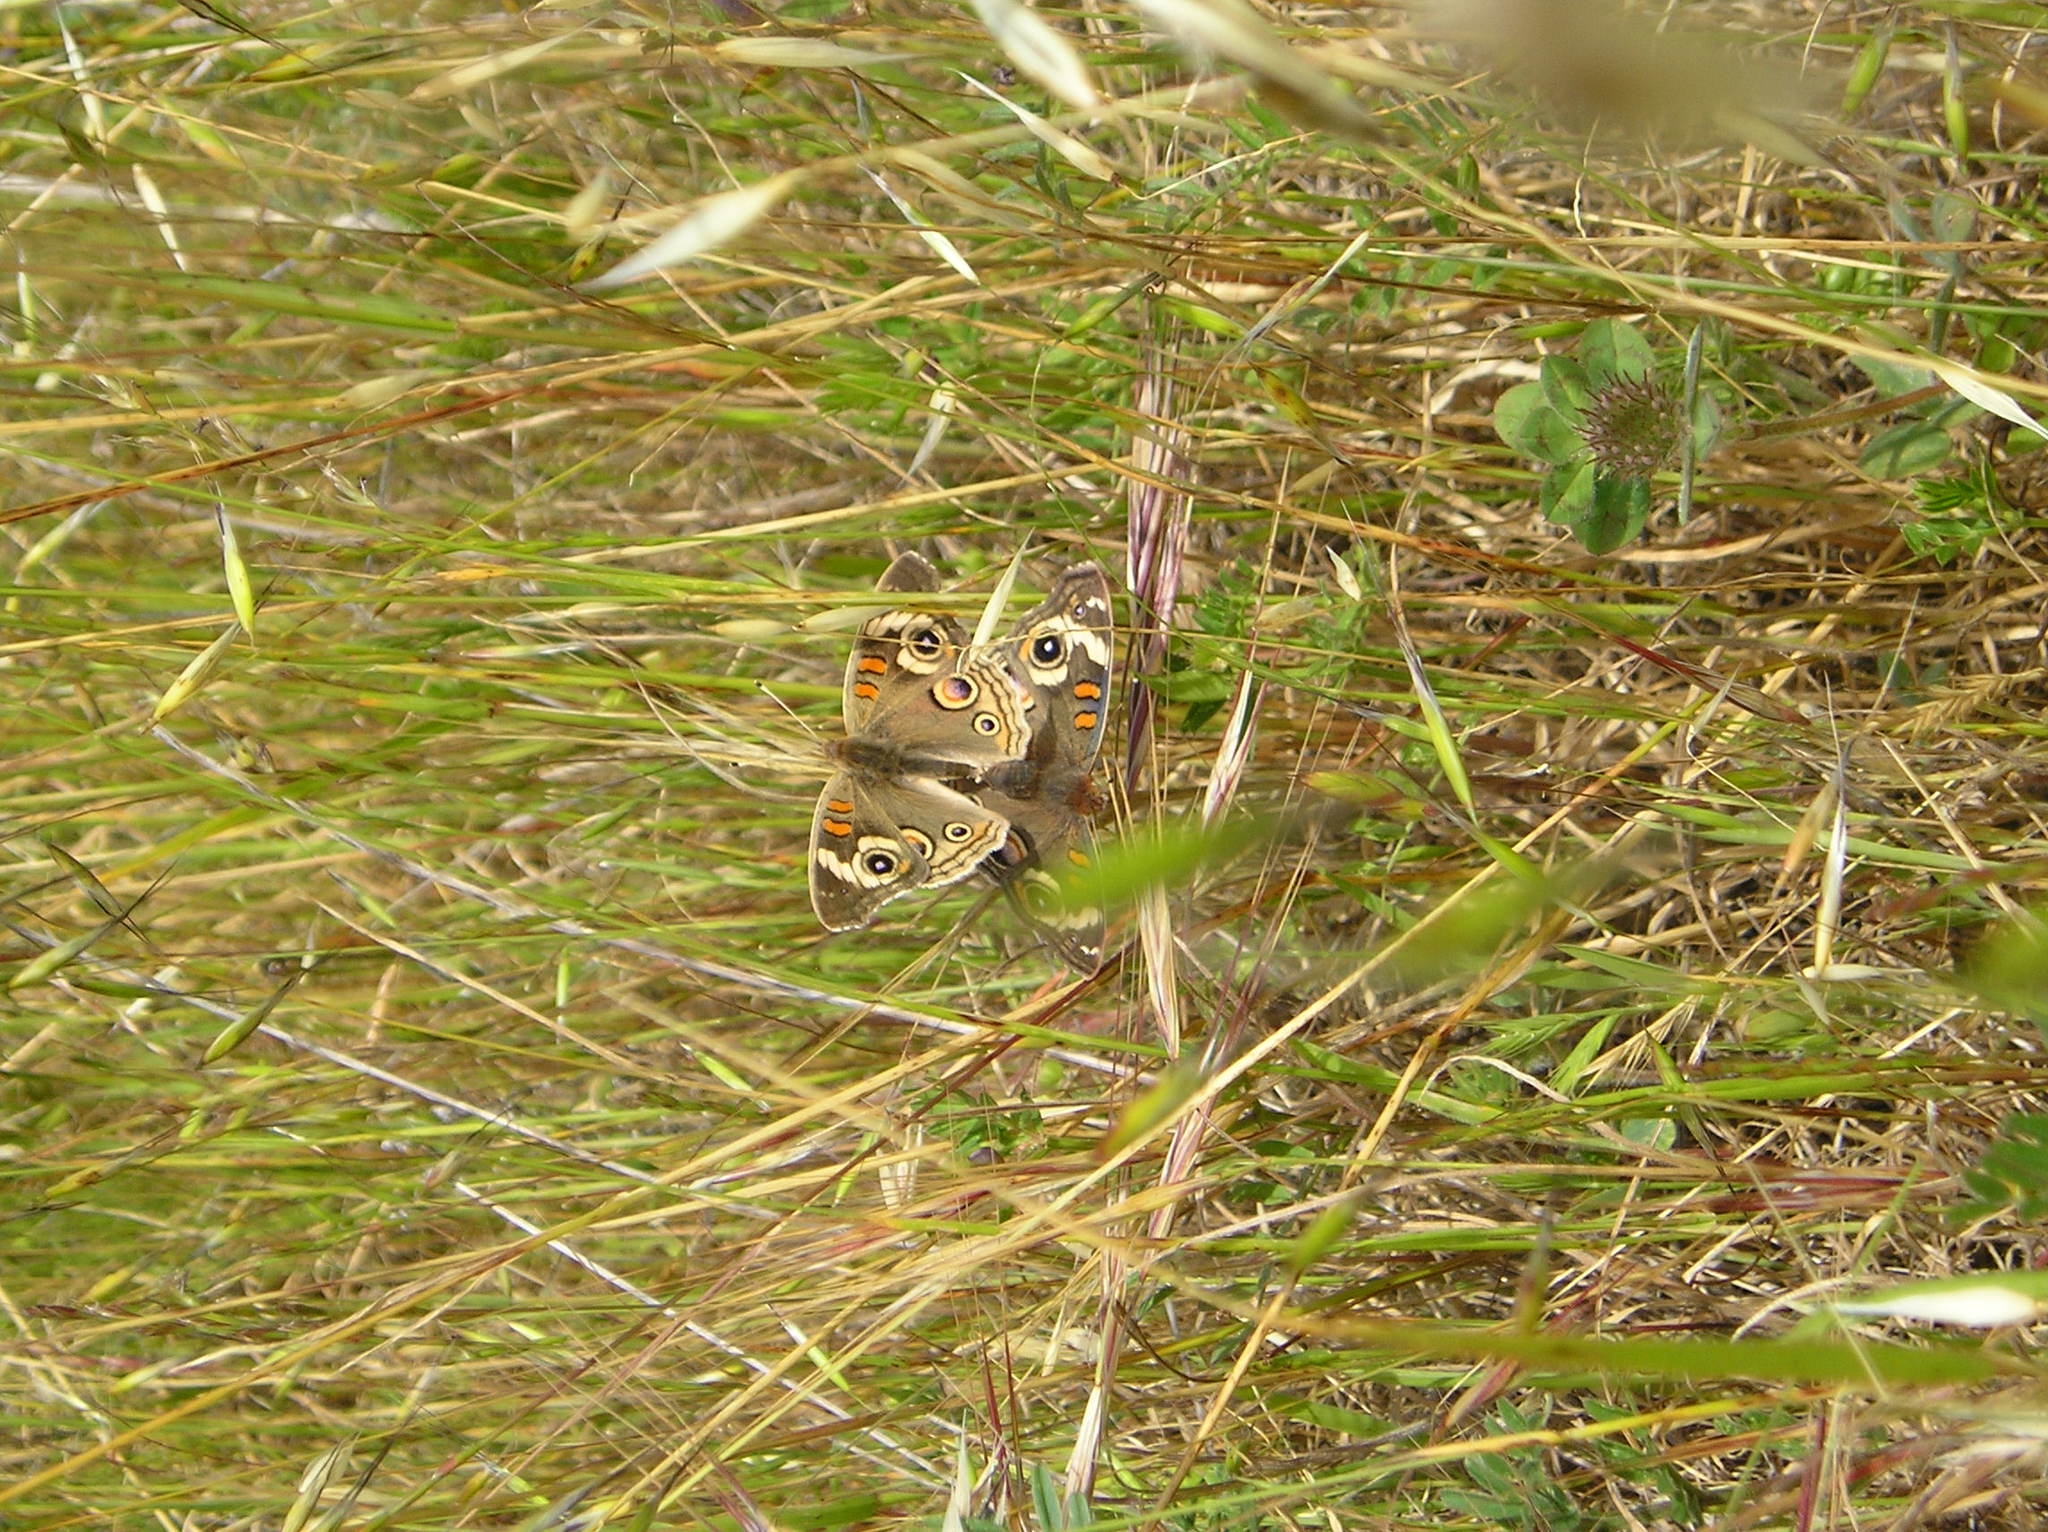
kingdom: Animalia
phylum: Arthropoda
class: Insecta
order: Lepidoptera
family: Nymphalidae
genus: Junonia
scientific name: Junonia grisea
